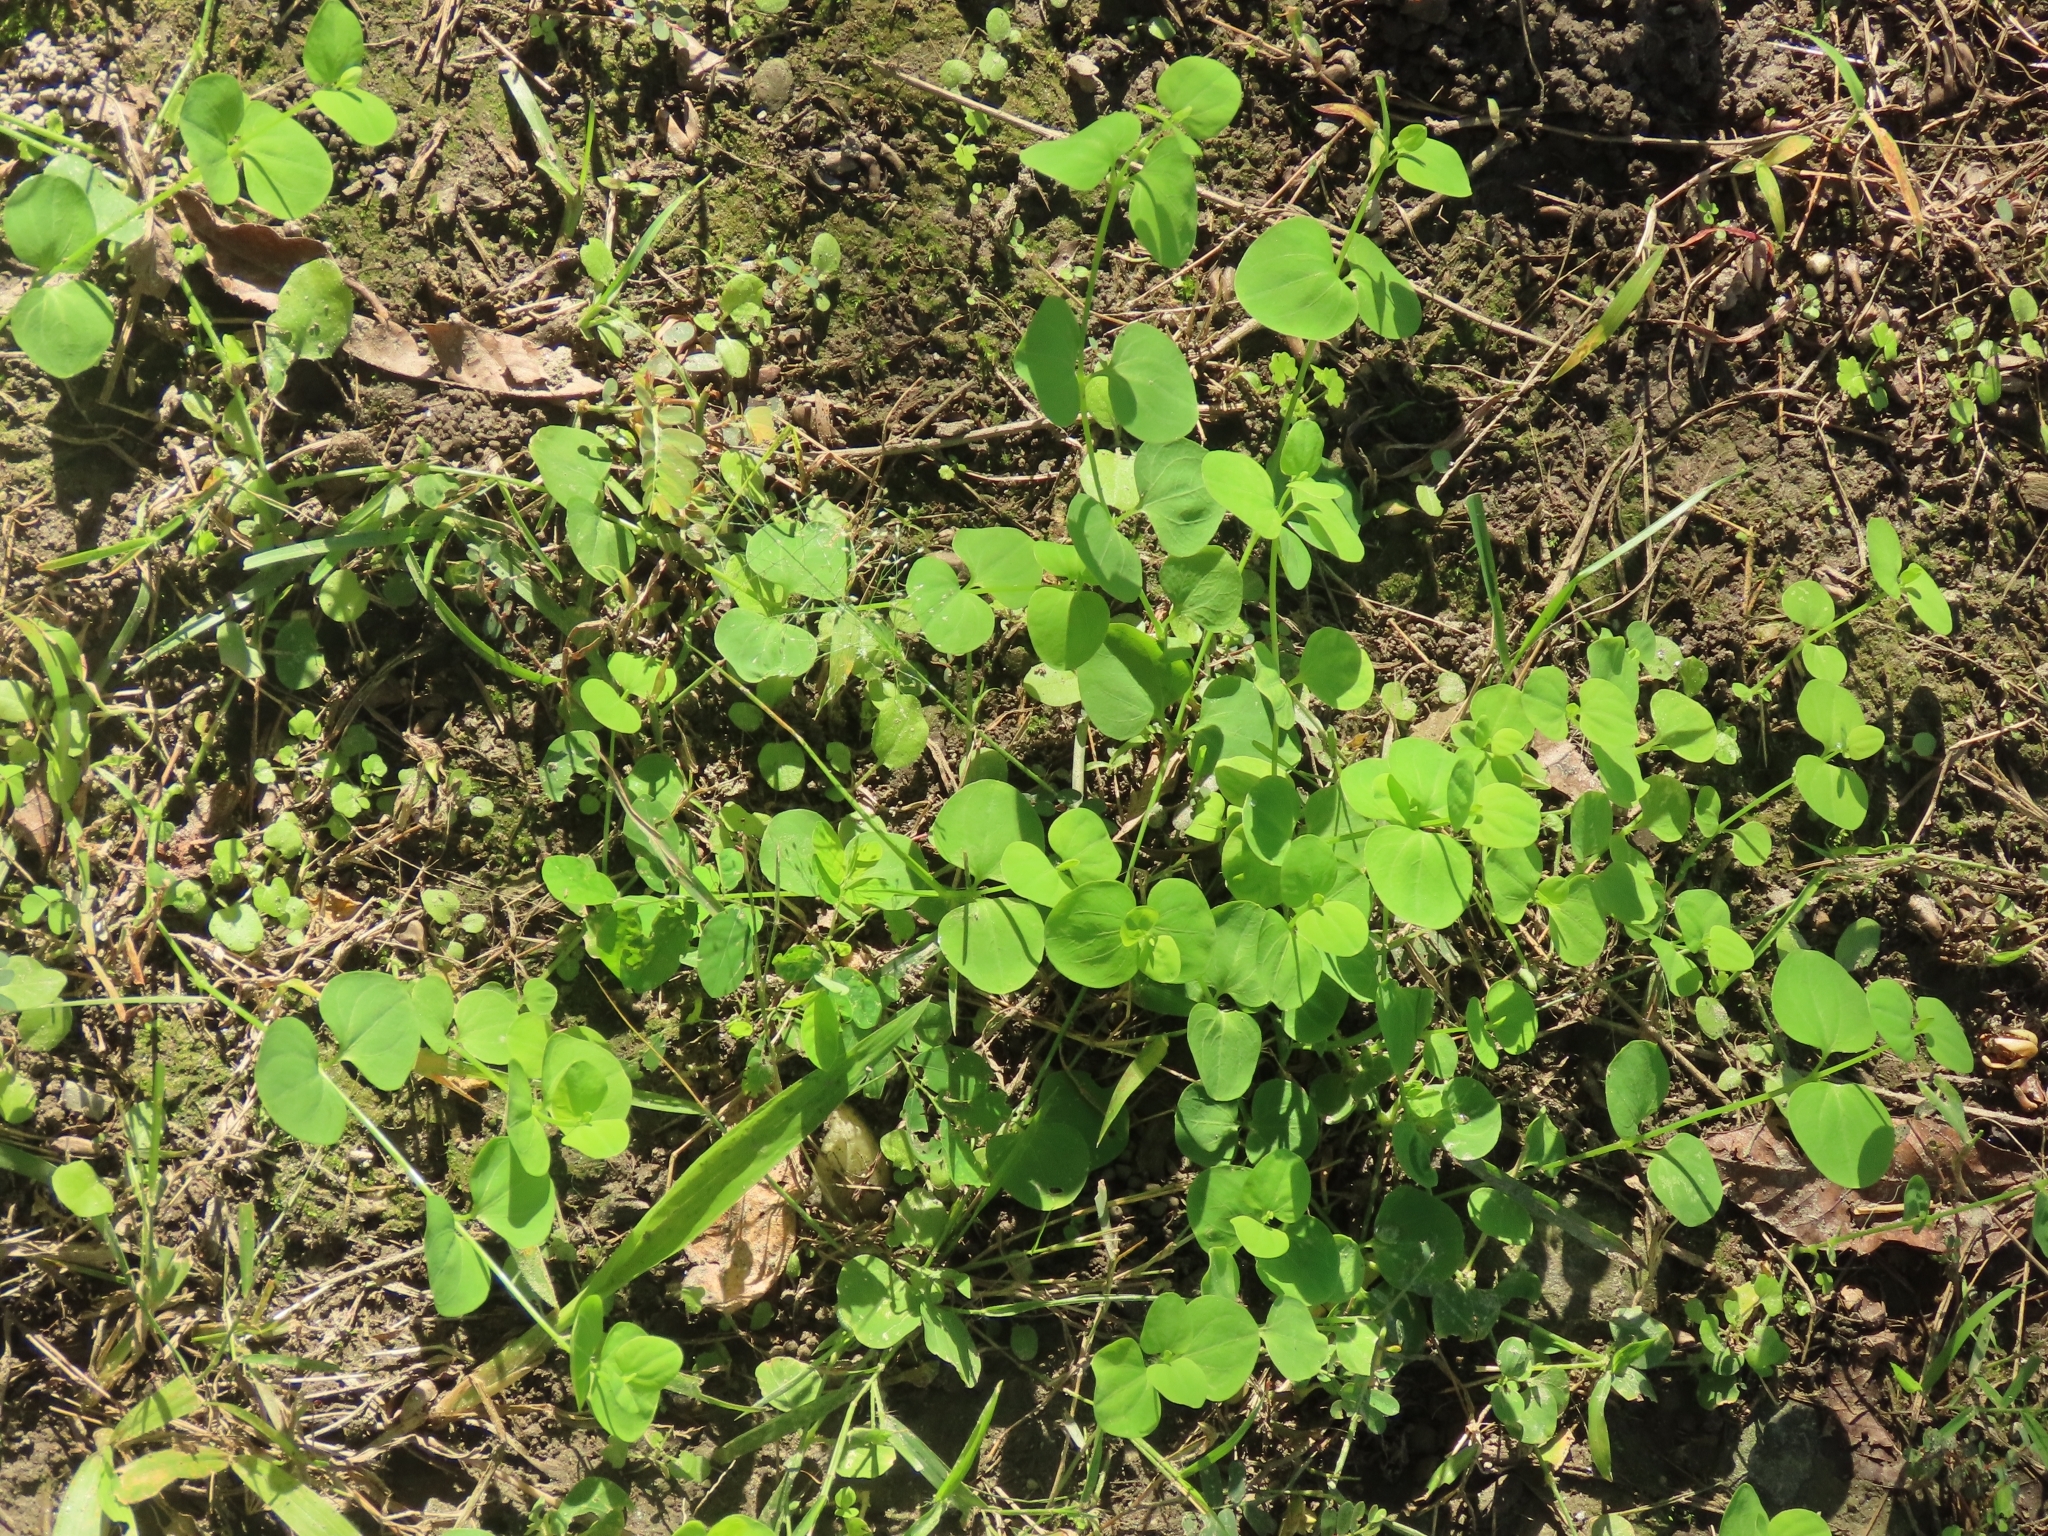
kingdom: Plantae
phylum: Tracheophyta
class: Magnoliopsida
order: Caryophyllales
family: Caryophyllaceae
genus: Drymaria
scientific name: Drymaria cordata
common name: Whitesnow
